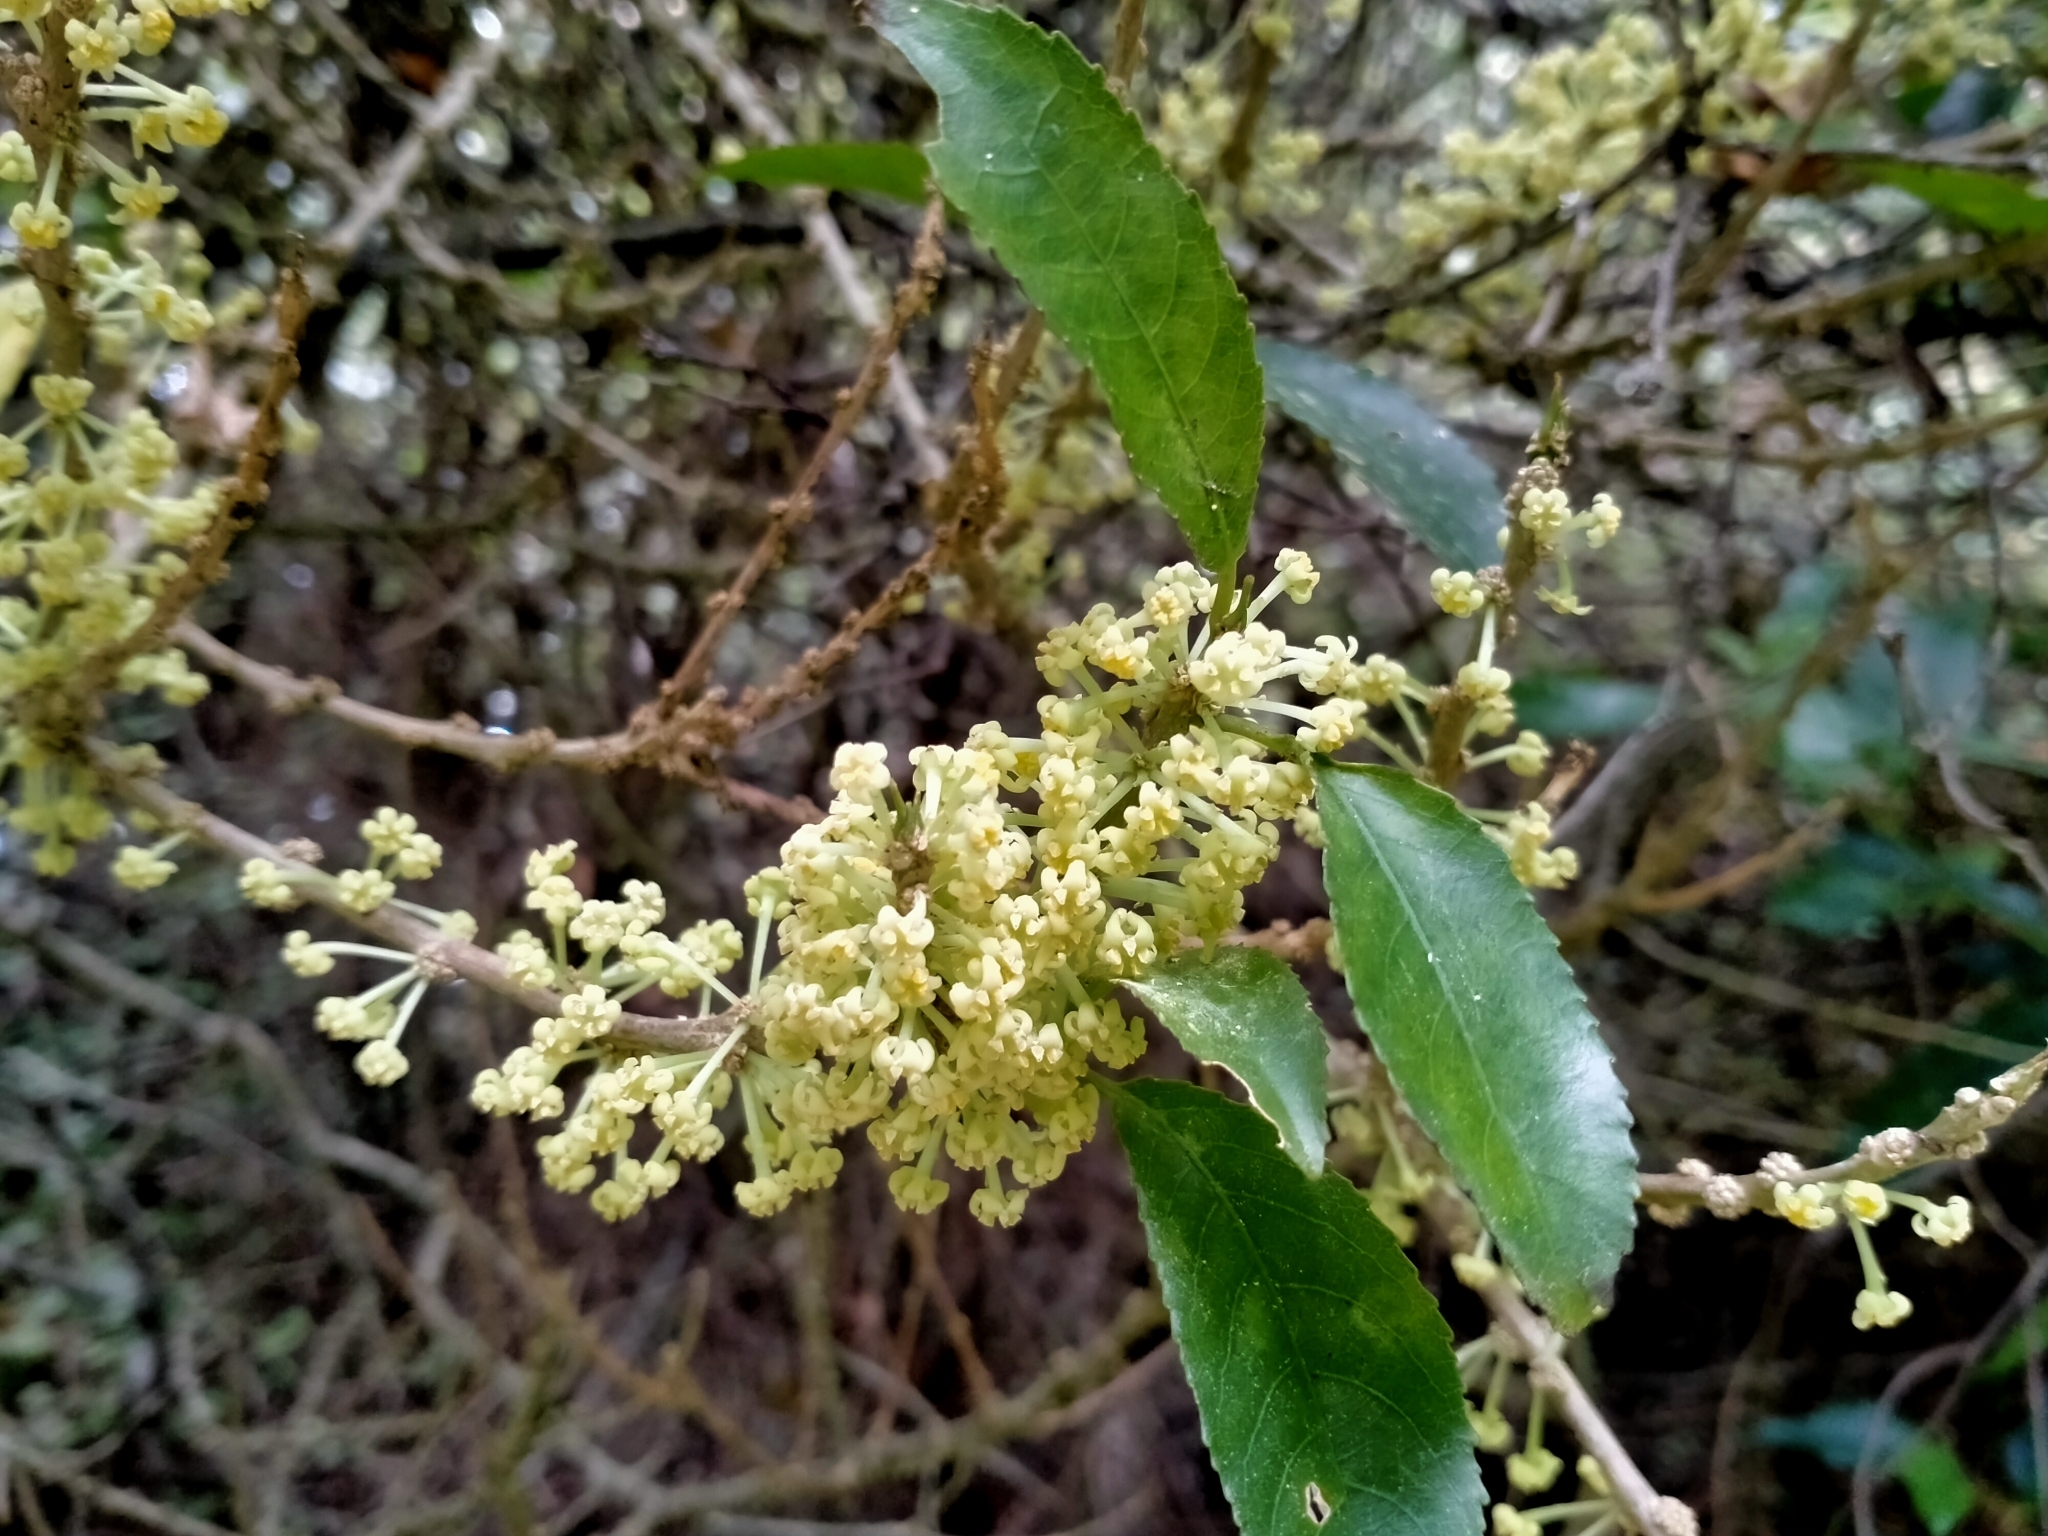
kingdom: Plantae
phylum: Tracheophyta
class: Magnoliopsida
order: Malpighiales
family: Violaceae
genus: Melicytus
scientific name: Melicytus ramiflorus
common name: Mahoe
